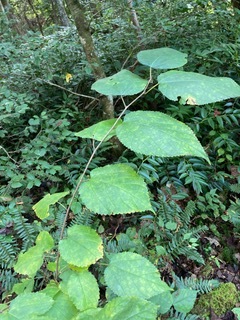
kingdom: Plantae
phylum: Tracheophyta
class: Magnoliopsida
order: Rosales
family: Moraceae
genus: Morus
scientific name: Morus rubra
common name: Red mulberry
